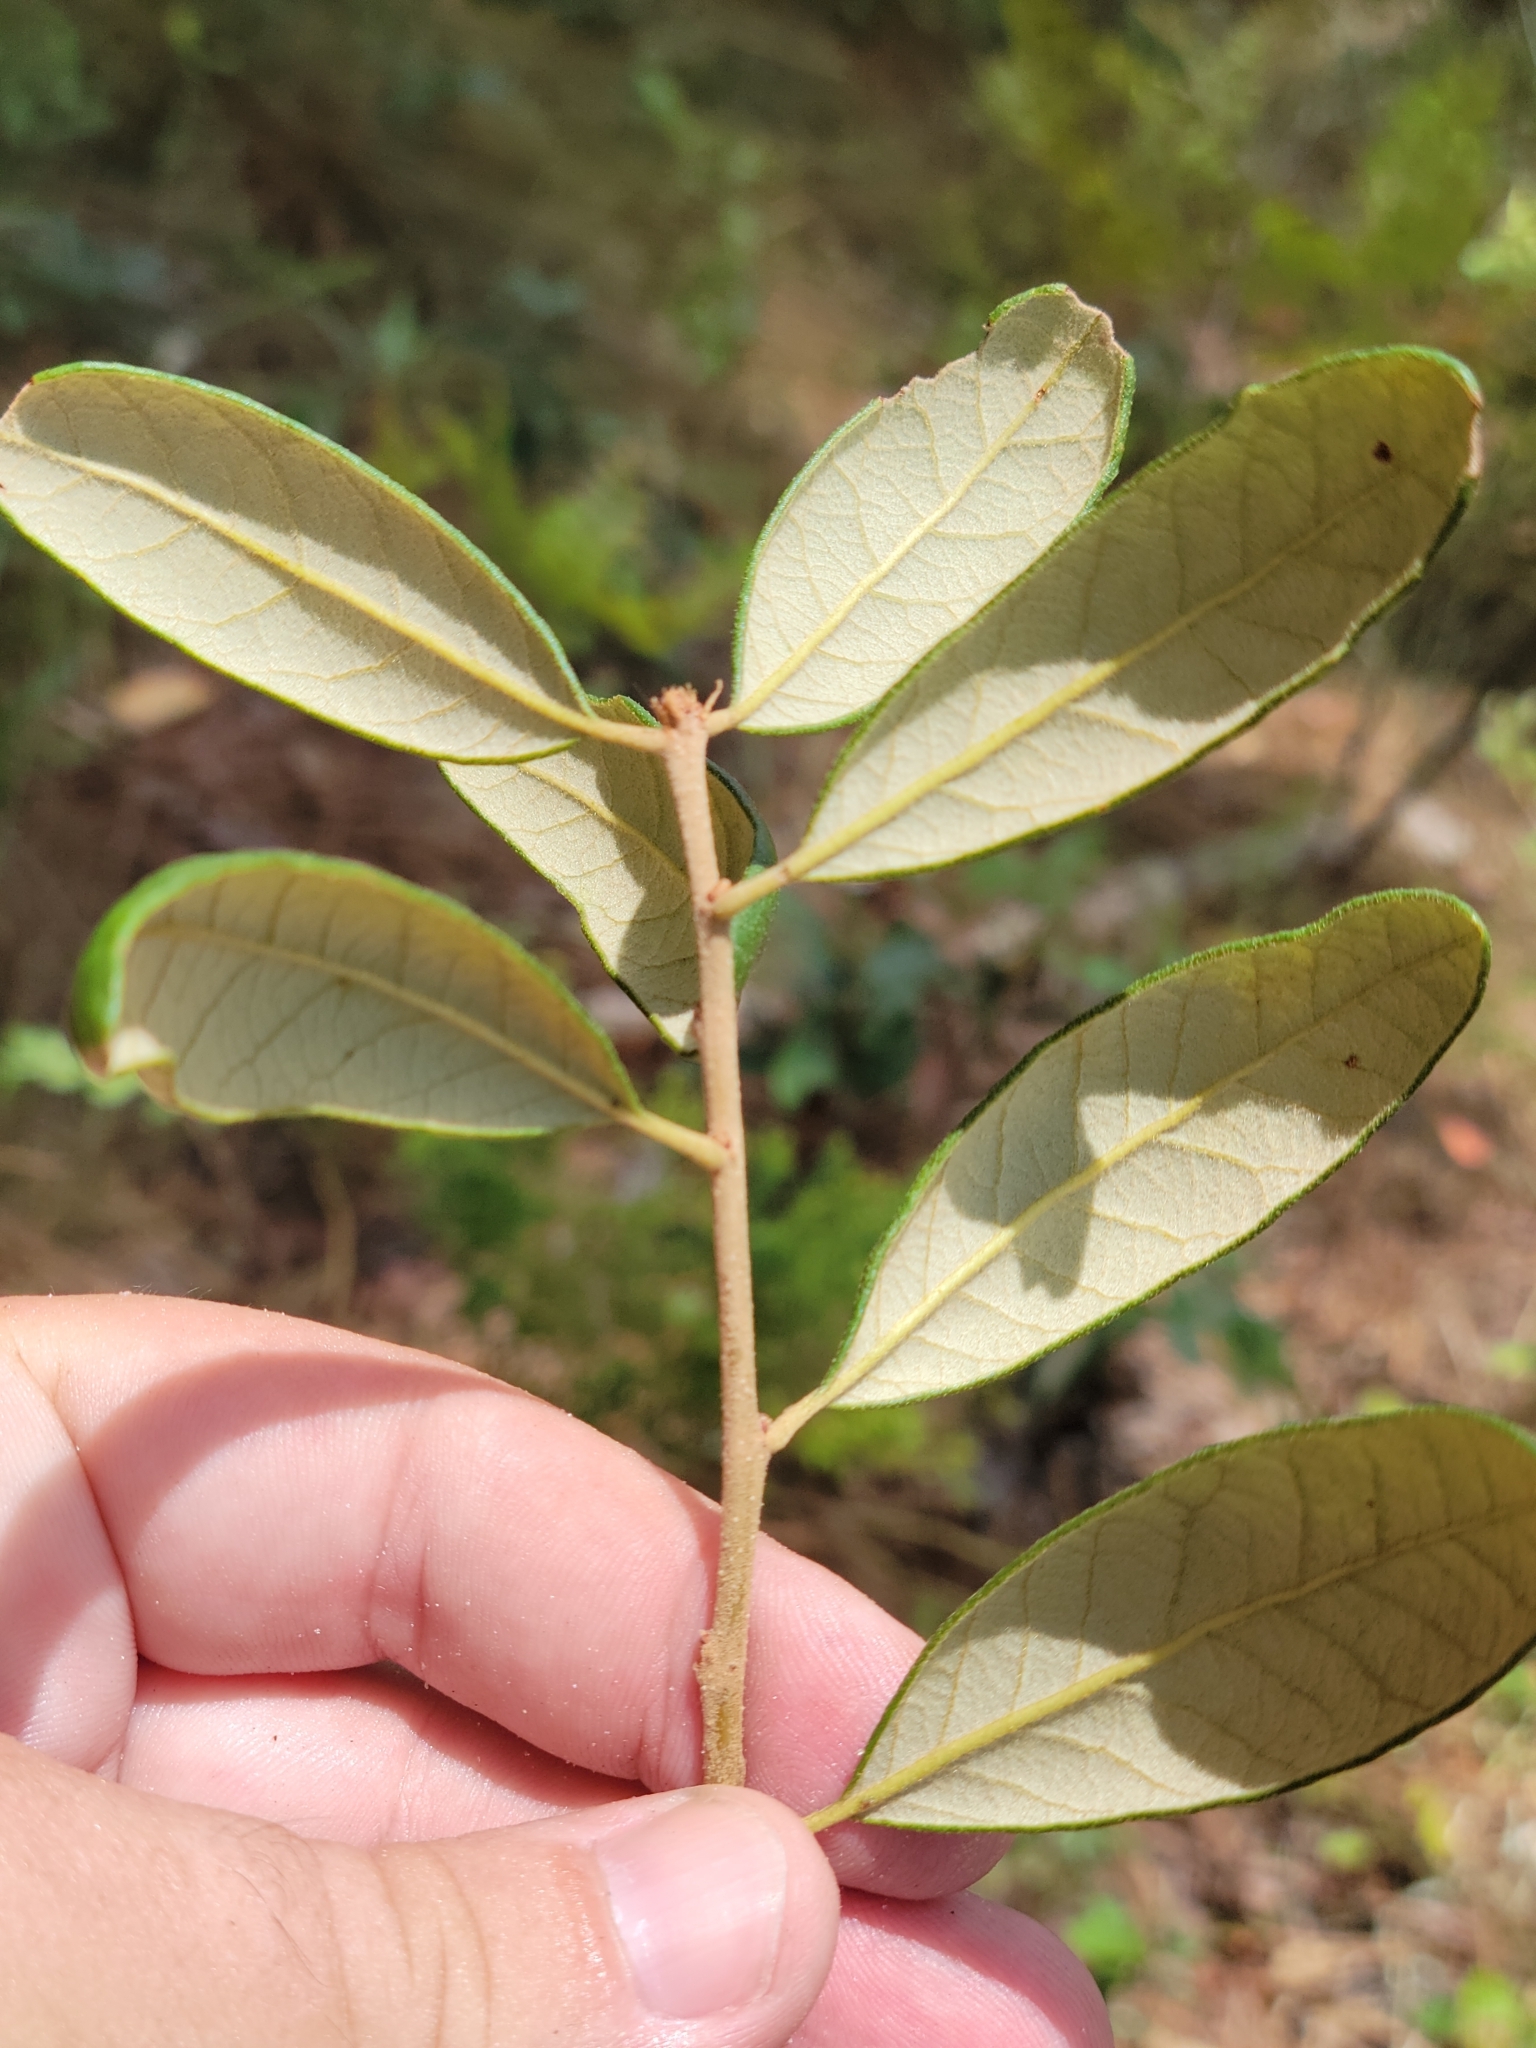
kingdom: Plantae
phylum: Tracheophyta
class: Magnoliopsida
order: Fagales
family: Fagaceae
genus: Quercus
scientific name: Quercus geminata
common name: Sand live oak
